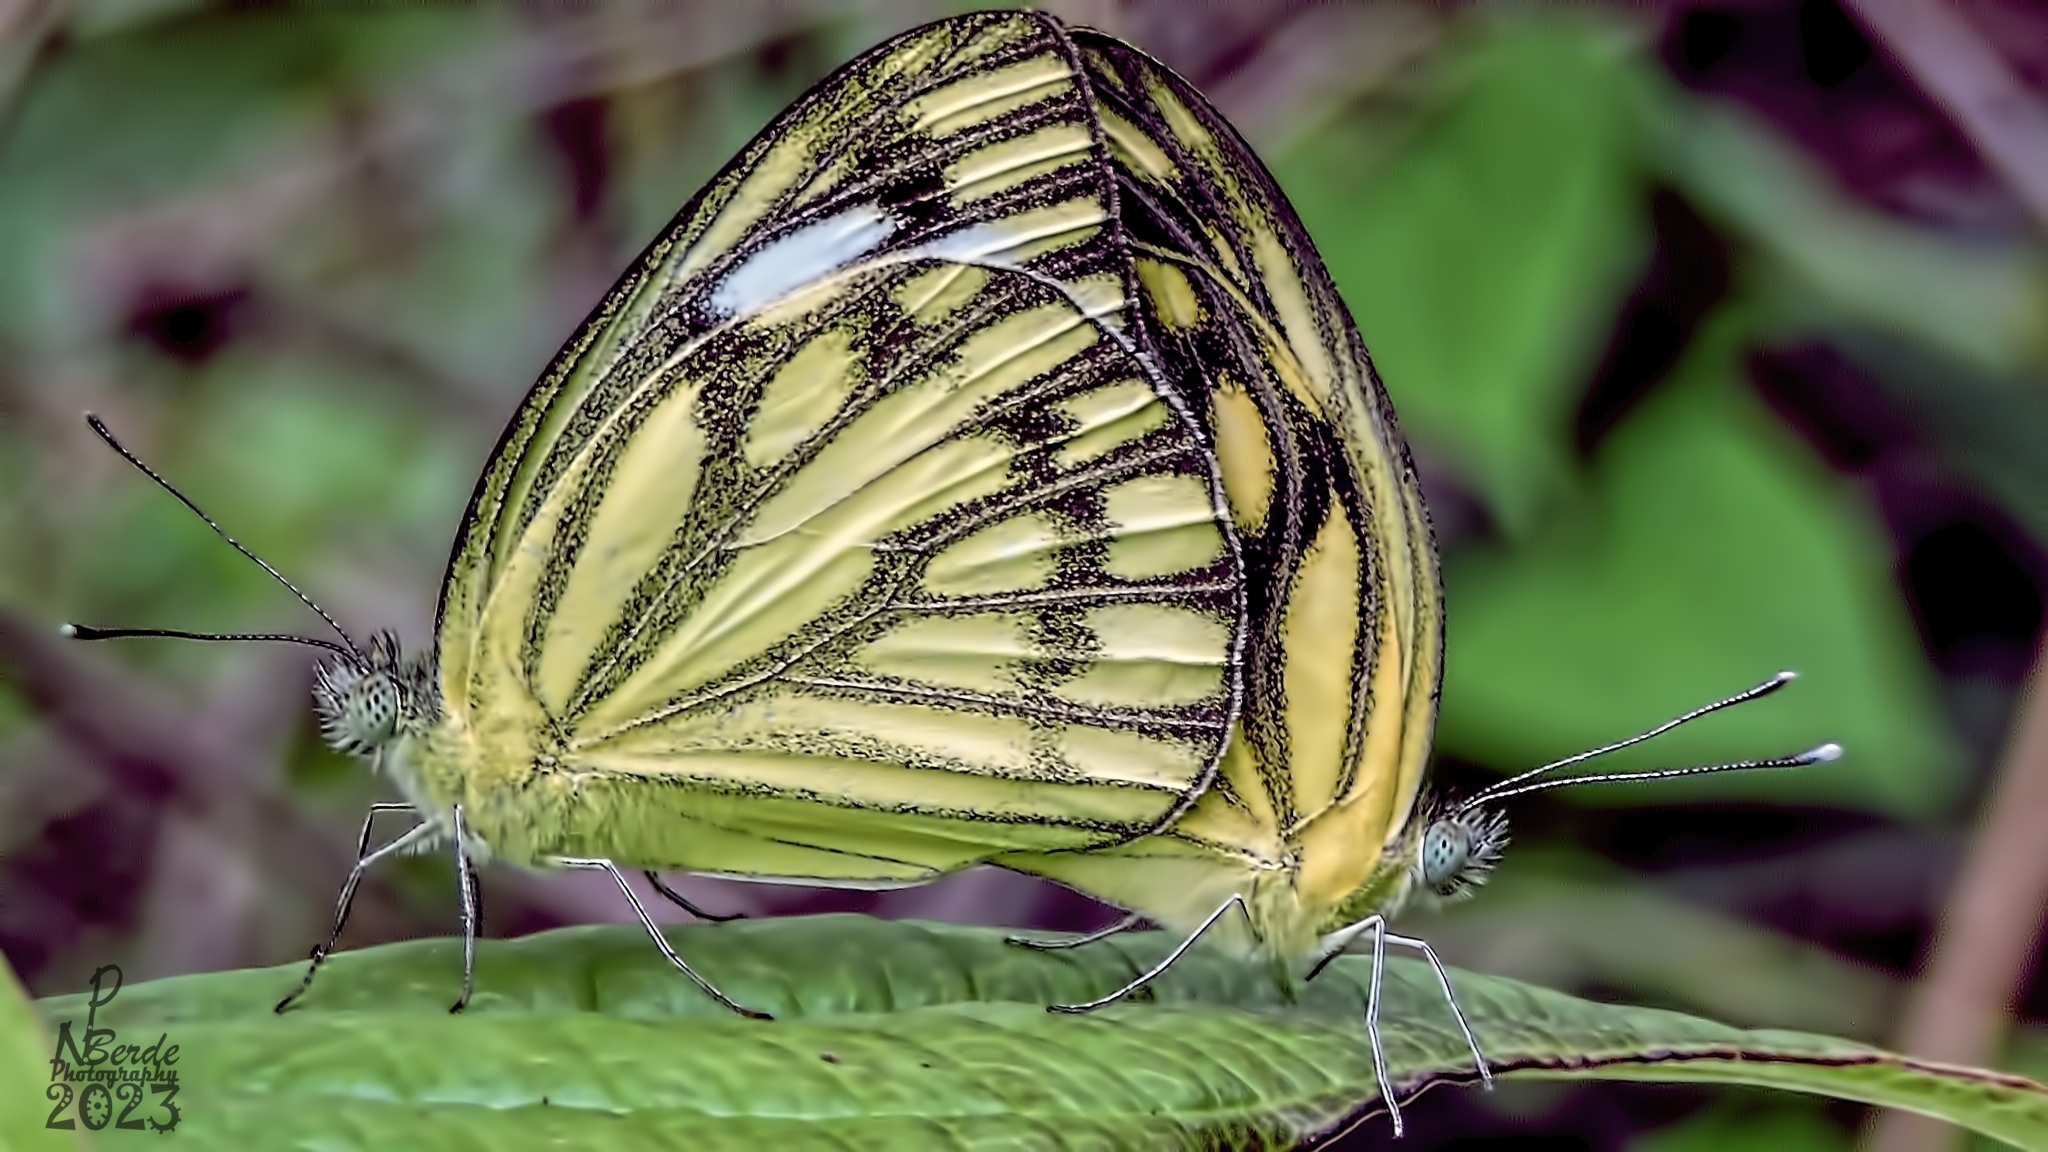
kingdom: Animalia
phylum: Arthropoda
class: Insecta
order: Lepidoptera
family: Pieridae
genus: Cepora
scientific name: Cepora nerissa
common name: Common gull
